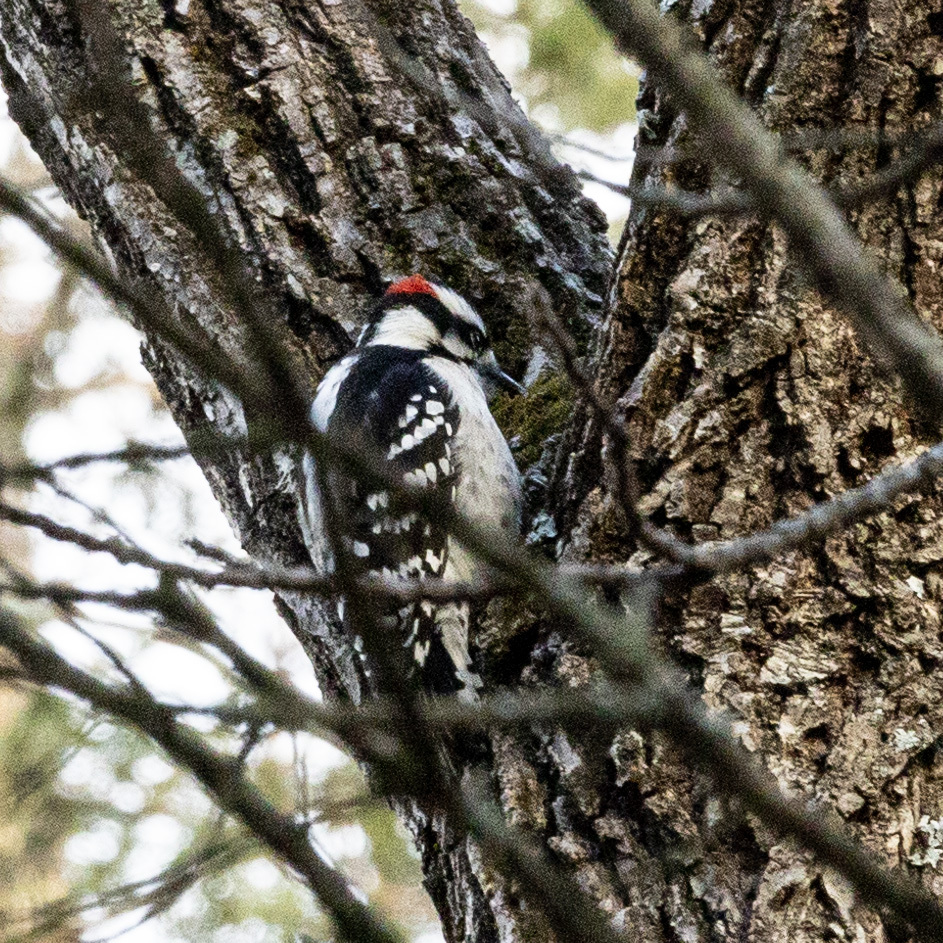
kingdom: Animalia
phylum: Chordata
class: Aves
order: Piciformes
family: Picidae
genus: Dryobates
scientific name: Dryobates pubescens
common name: Downy woodpecker
